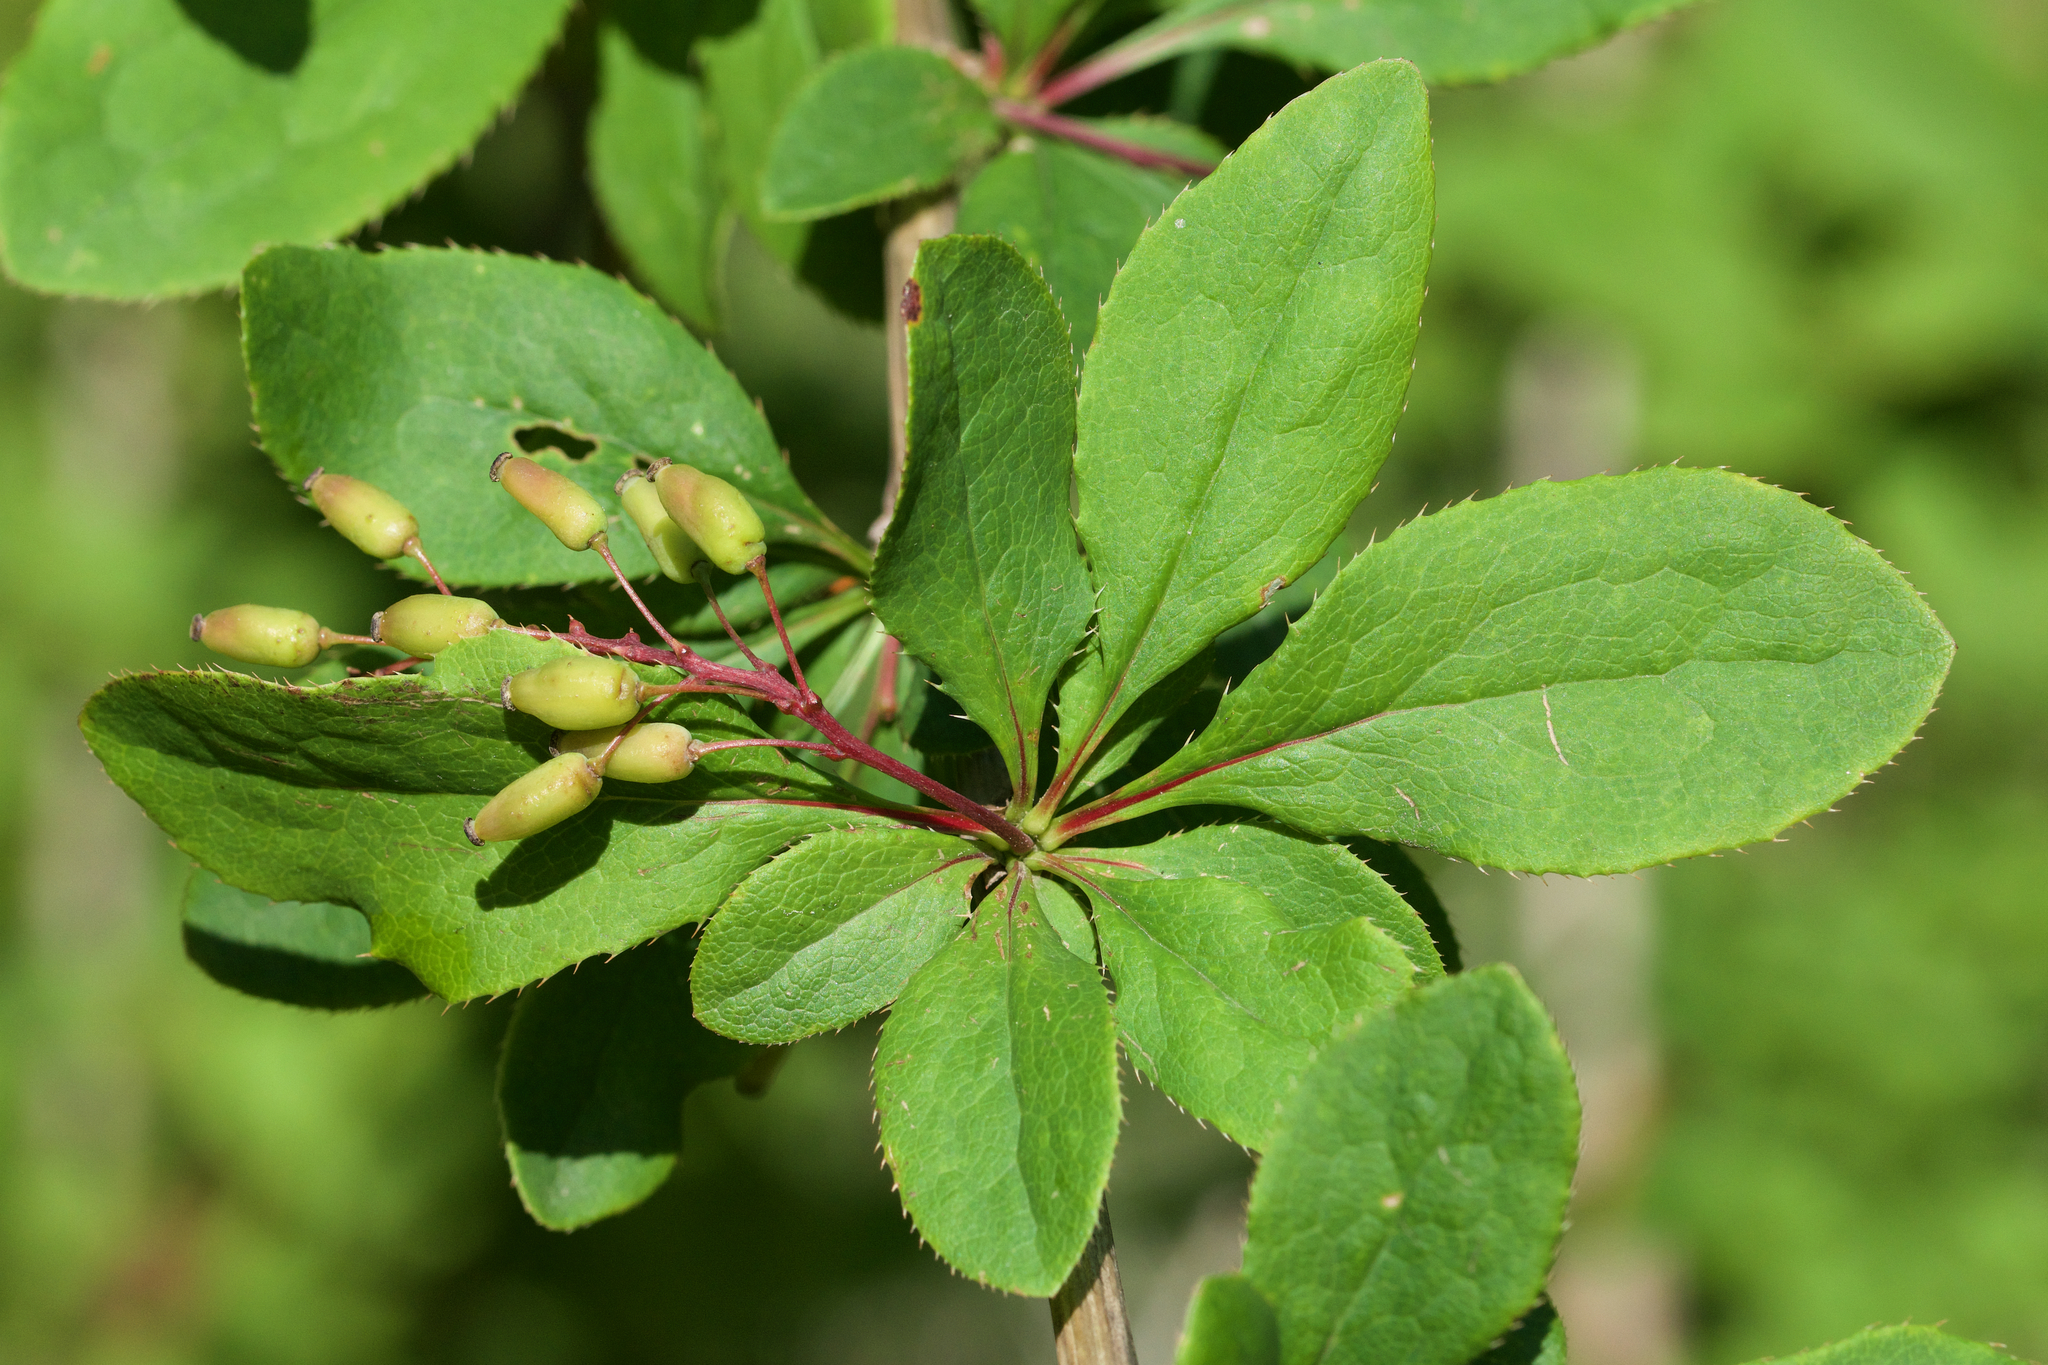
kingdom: Plantae
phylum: Tracheophyta
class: Magnoliopsida
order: Ranunculales
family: Berberidaceae
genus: Berberis
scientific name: Berberis vulgaris
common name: Barberry
